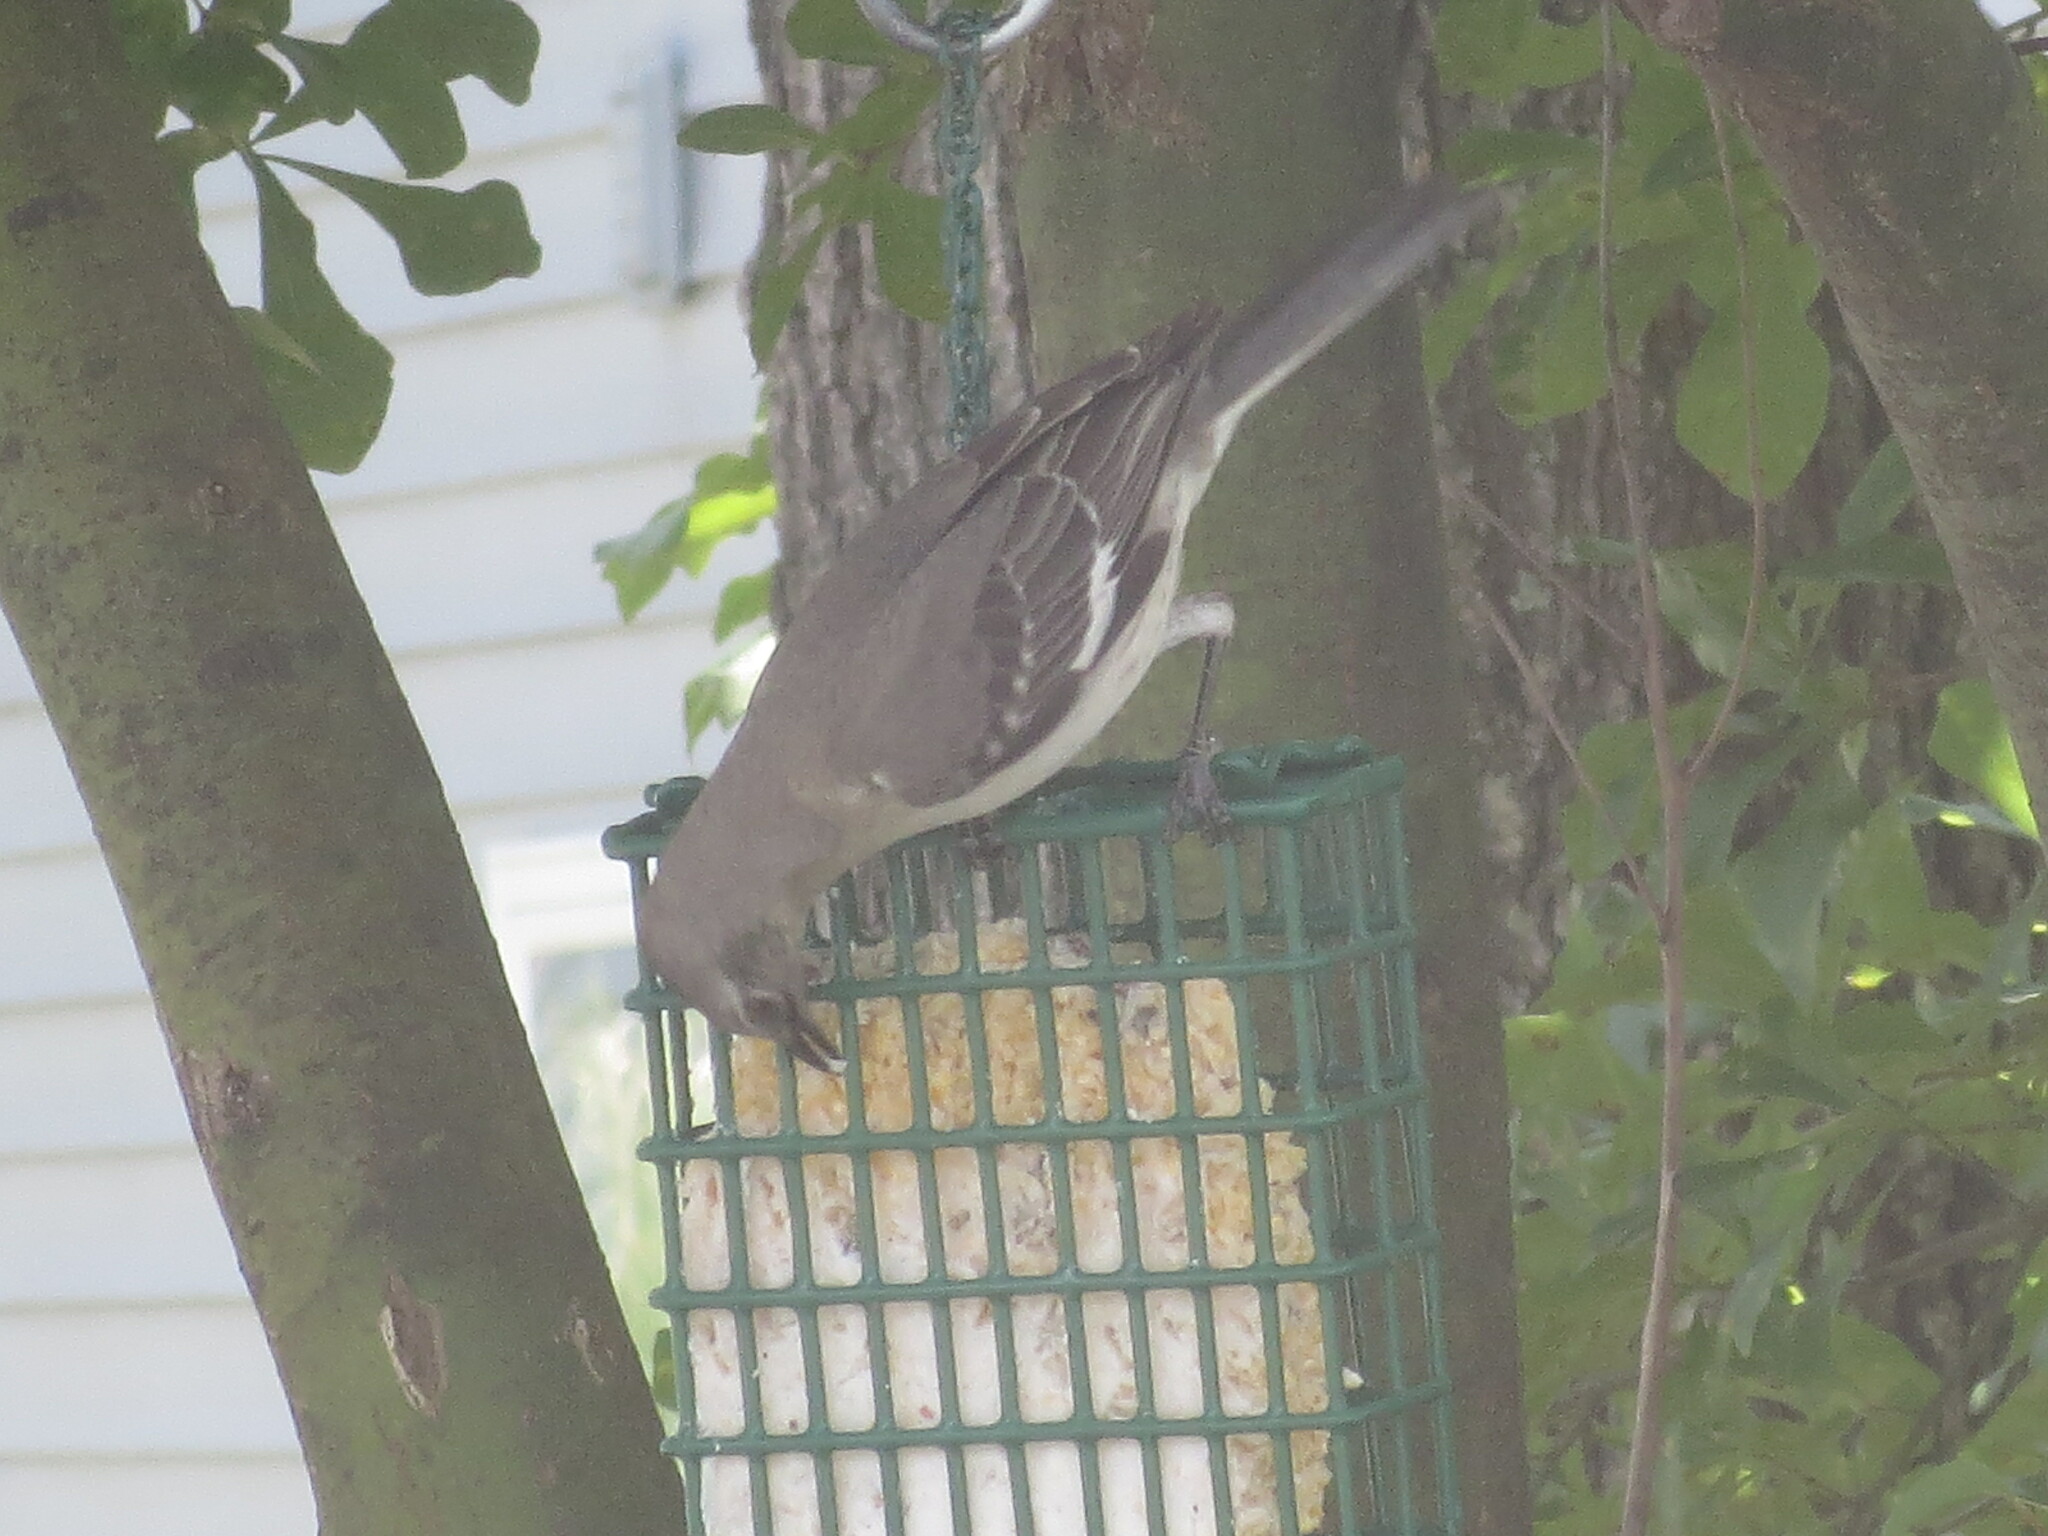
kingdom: Animalia
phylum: Chordata
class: Aves
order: Passeriformes
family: Mimidae
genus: Mimus
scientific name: Mimus polyglottos
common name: Northern mockingbird
